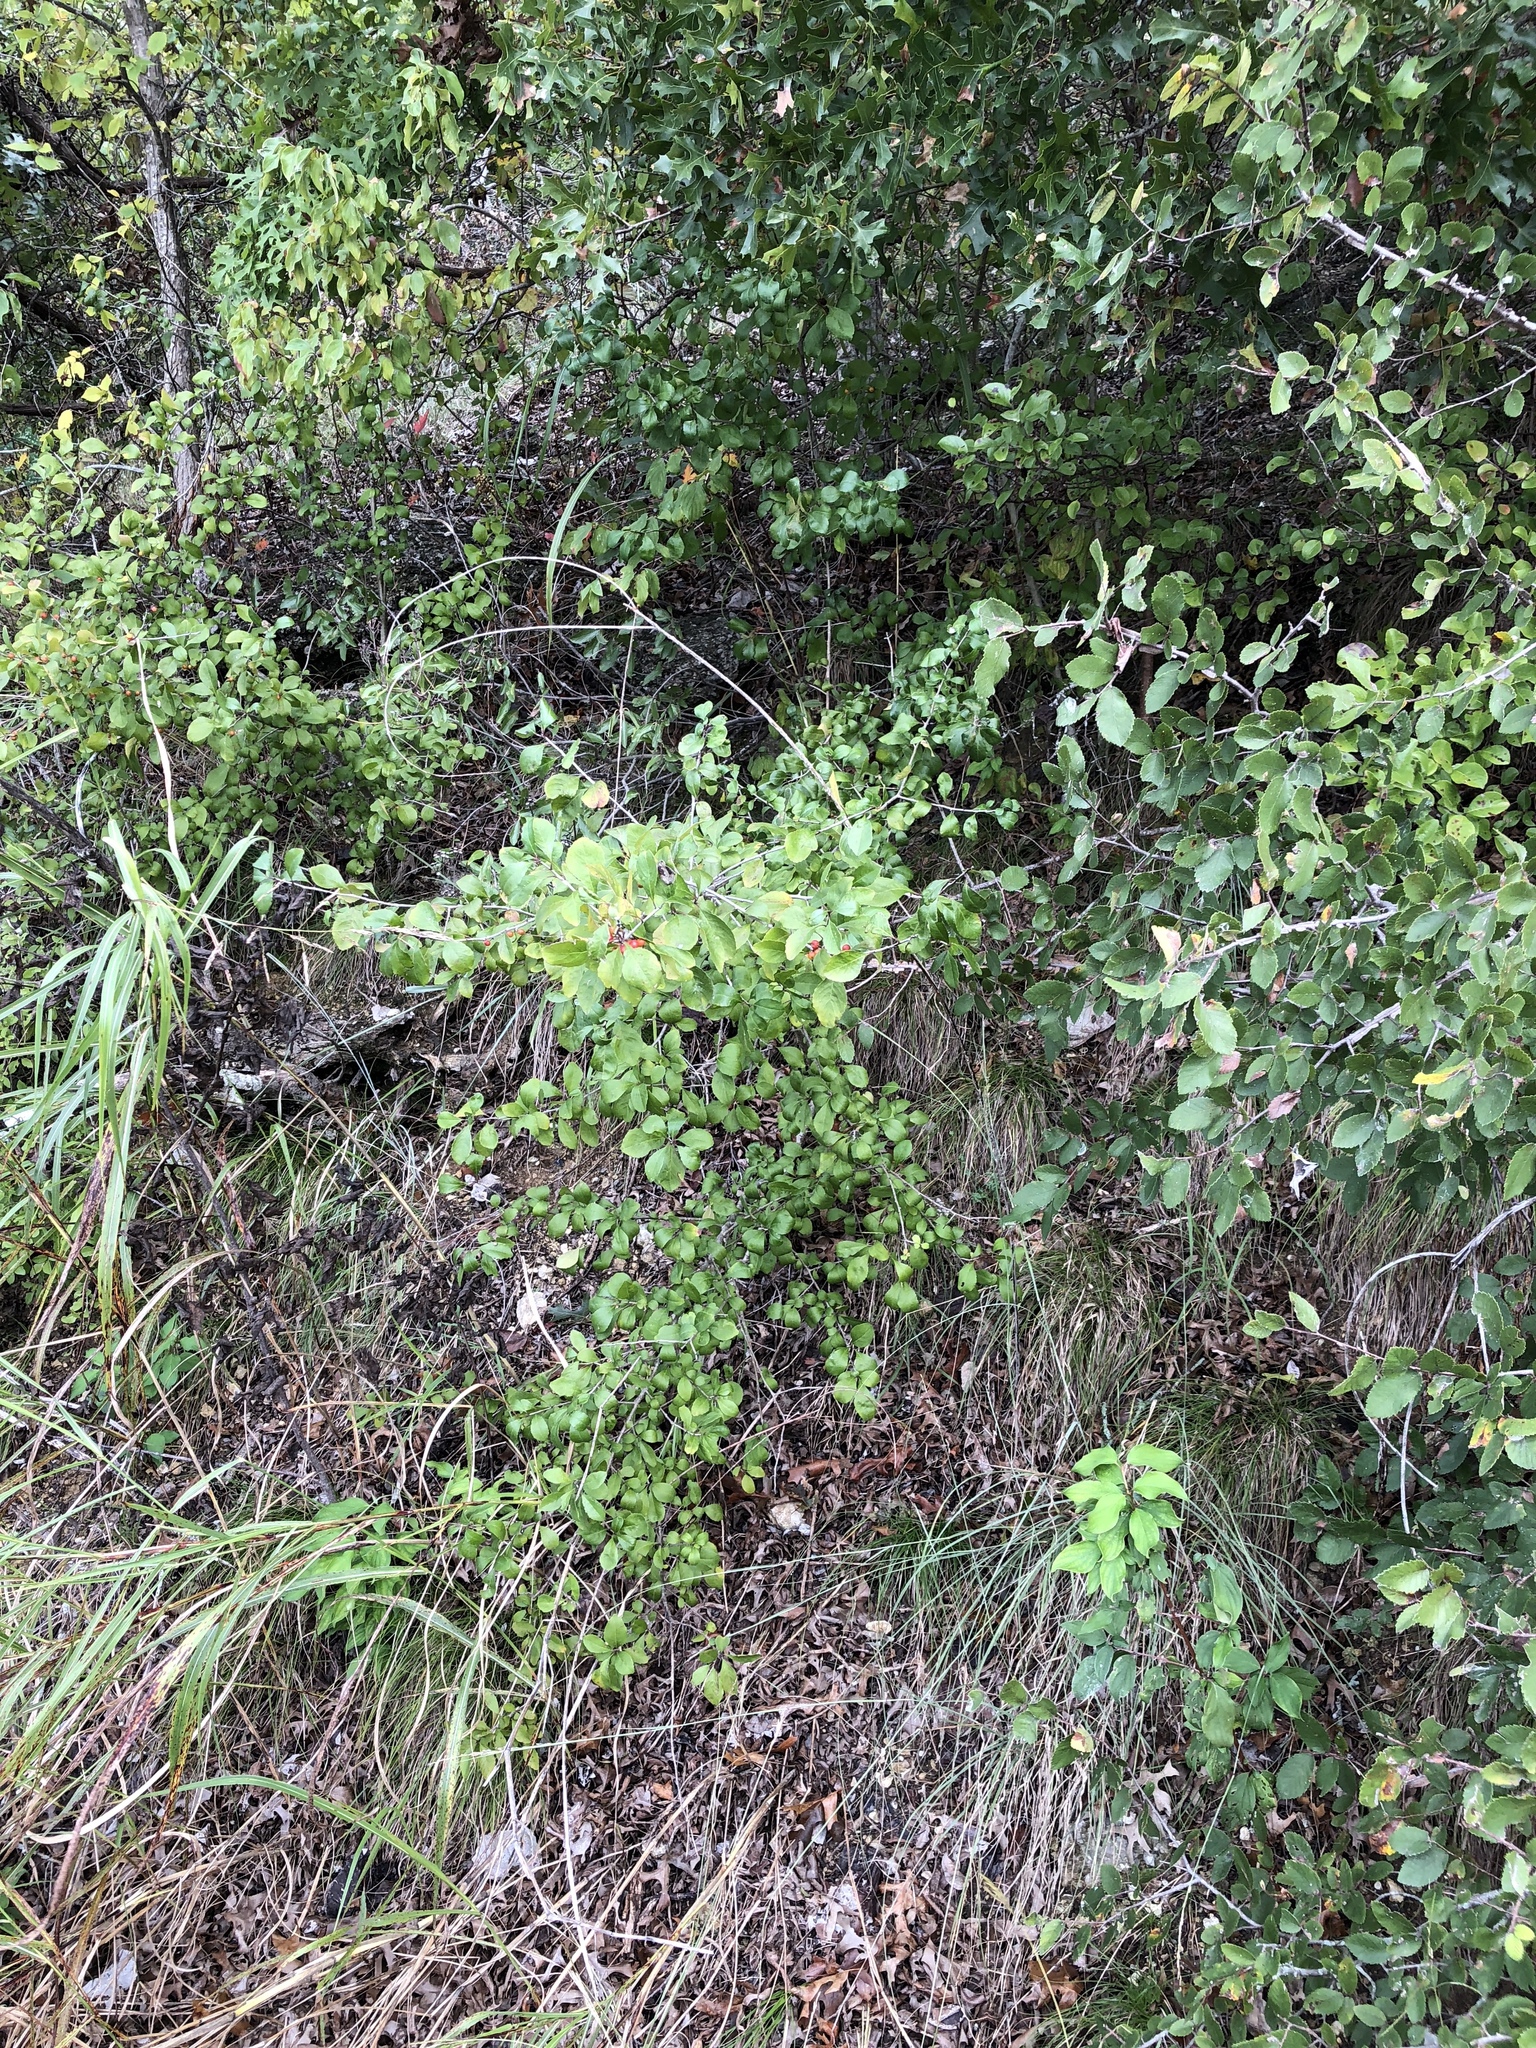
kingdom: Plantae
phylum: Tracheophyta
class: Magnoliopsida
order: Aquifoliales
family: Aquifoliaceae
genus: Ilex
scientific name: Ilex decidua
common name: Possum-haw
